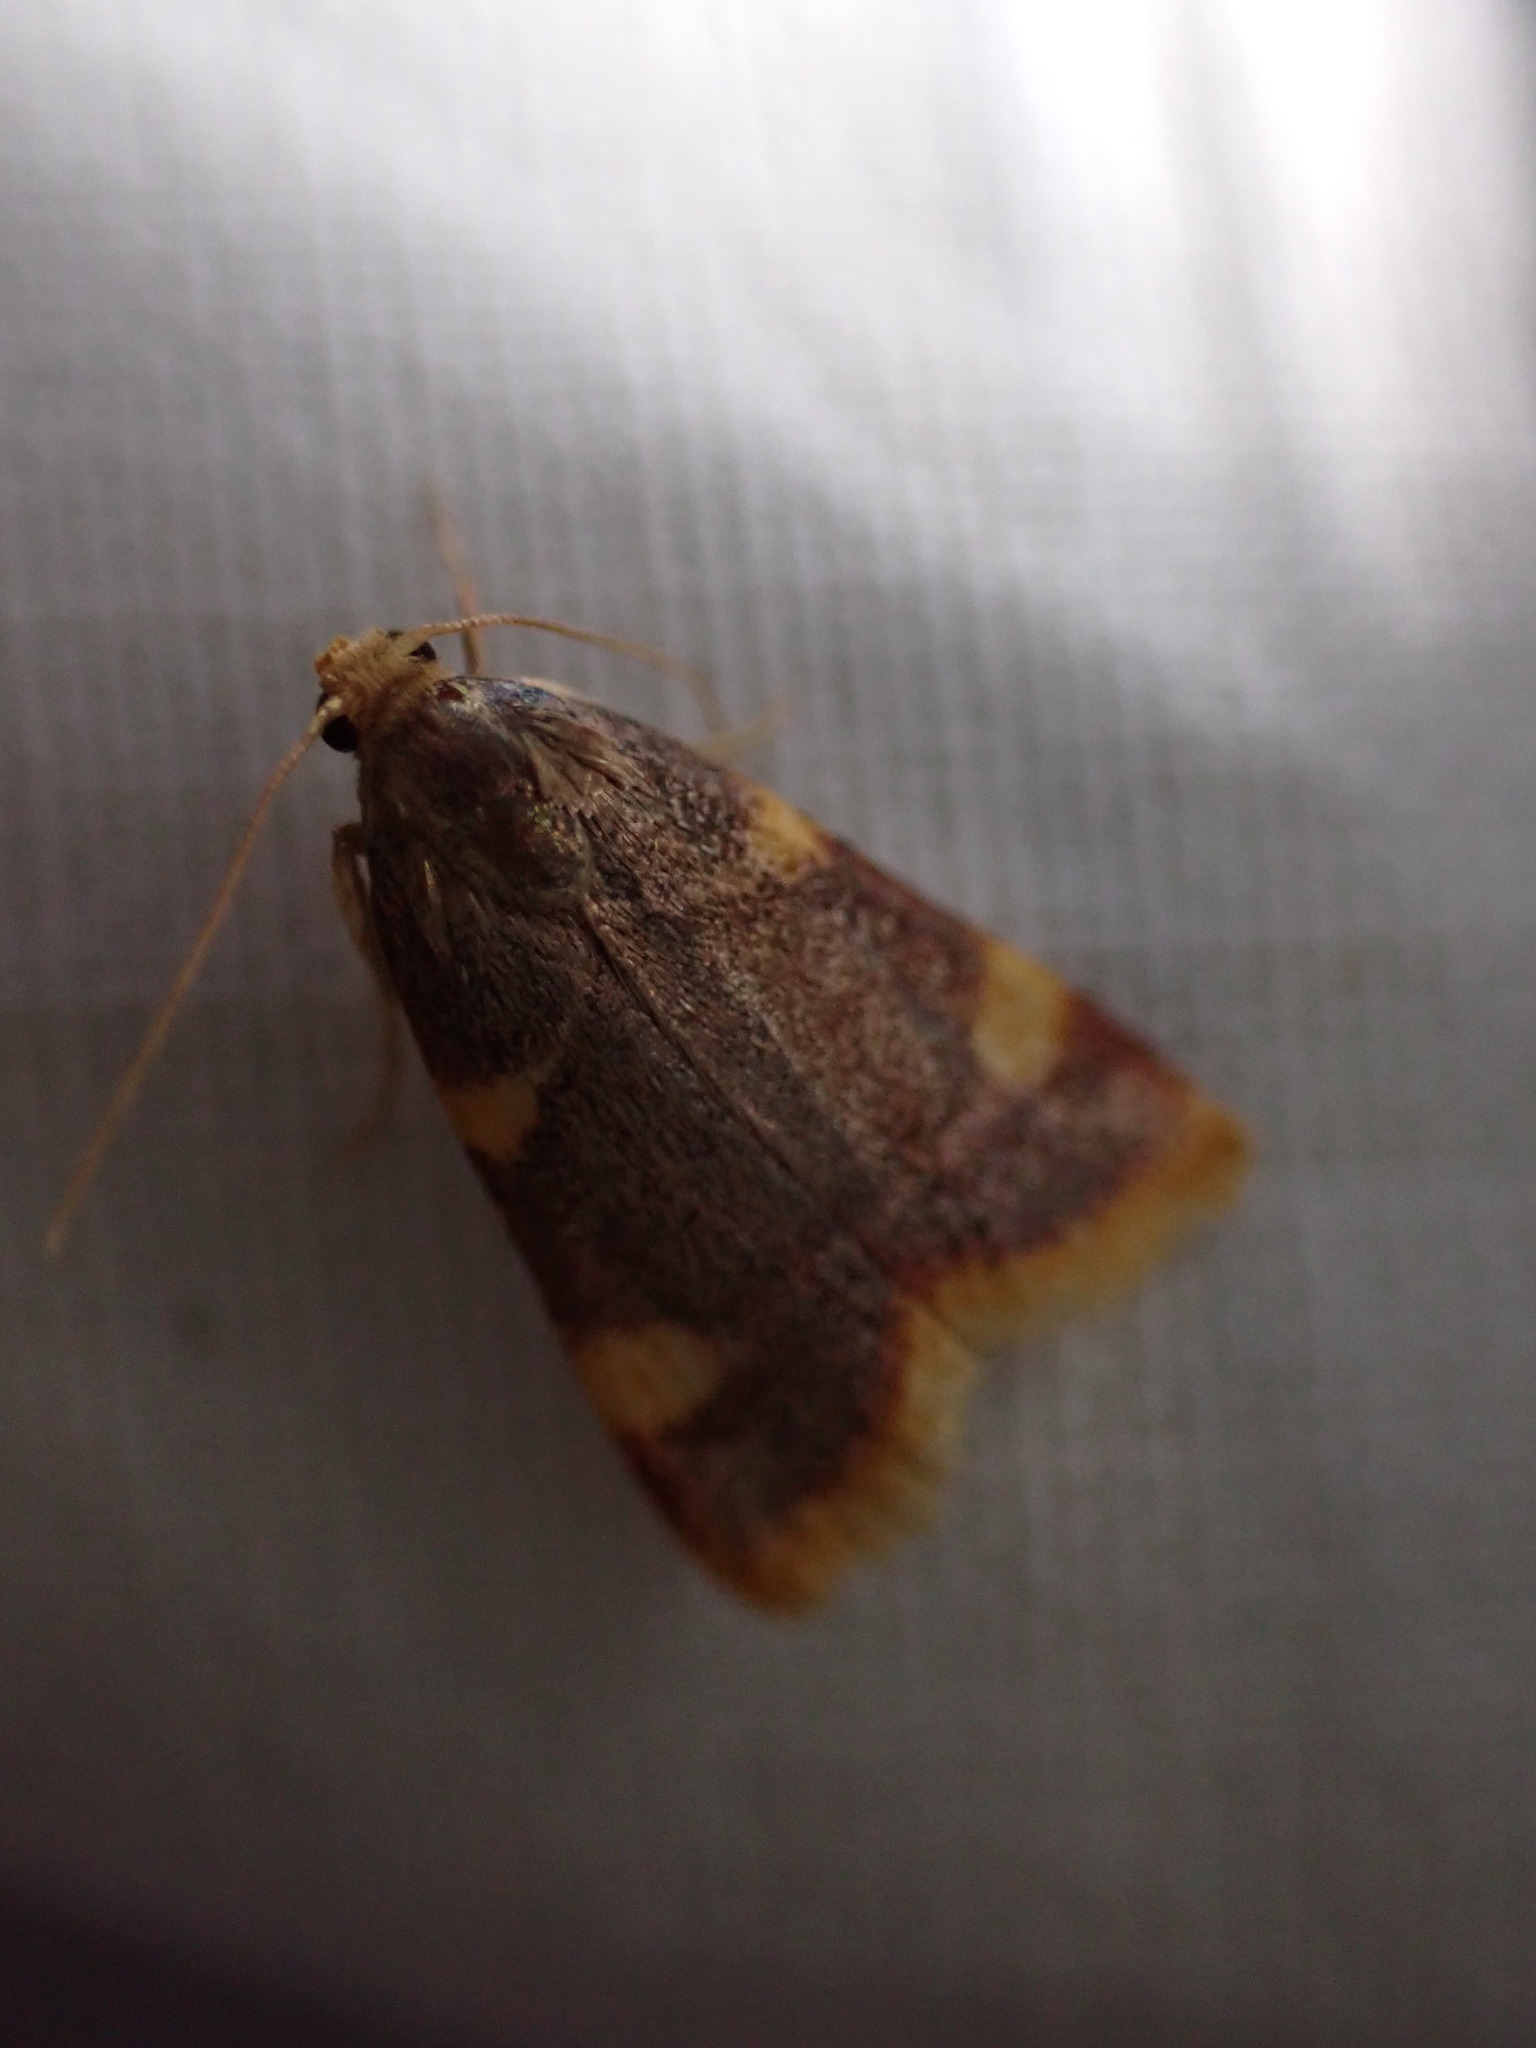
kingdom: Animalia
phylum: Arthropoda
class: Insecta
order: Lepidoptera
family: Pyralidae
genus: Hypsopygia
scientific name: Hypsopygia costalis
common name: Gold triangle
